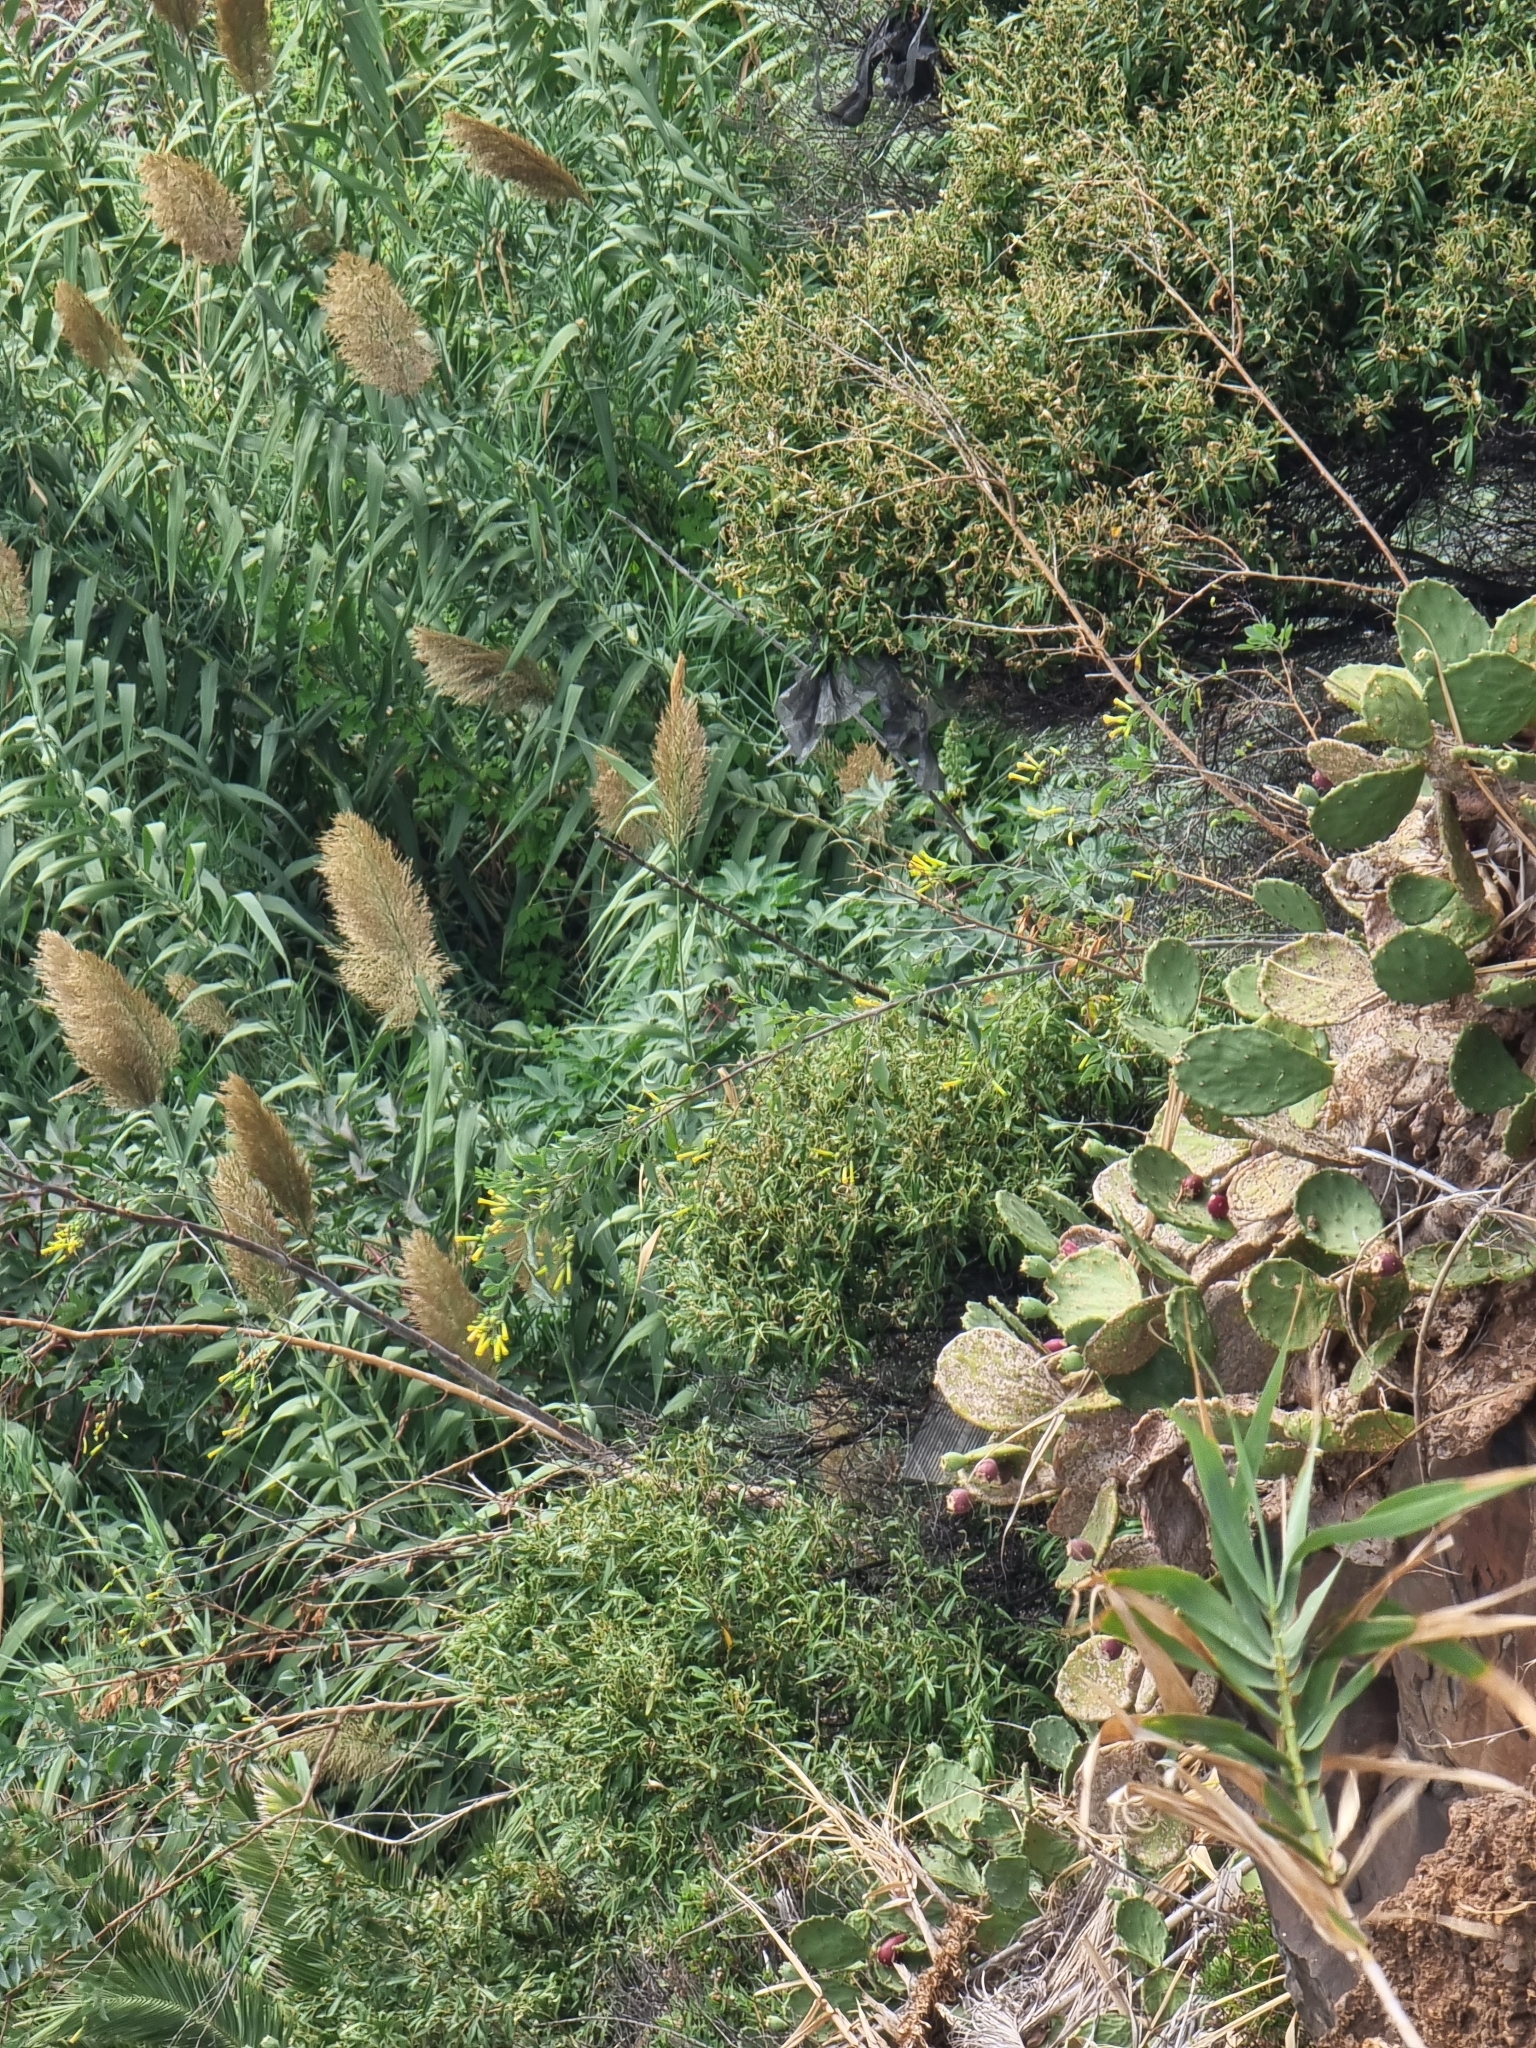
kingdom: Plantae
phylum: Tracheophyta
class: Magnoliopsida
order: Solanales
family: Solanaceae
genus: Nicotiana
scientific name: Nicotiana glauca
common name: Tree tobacco
